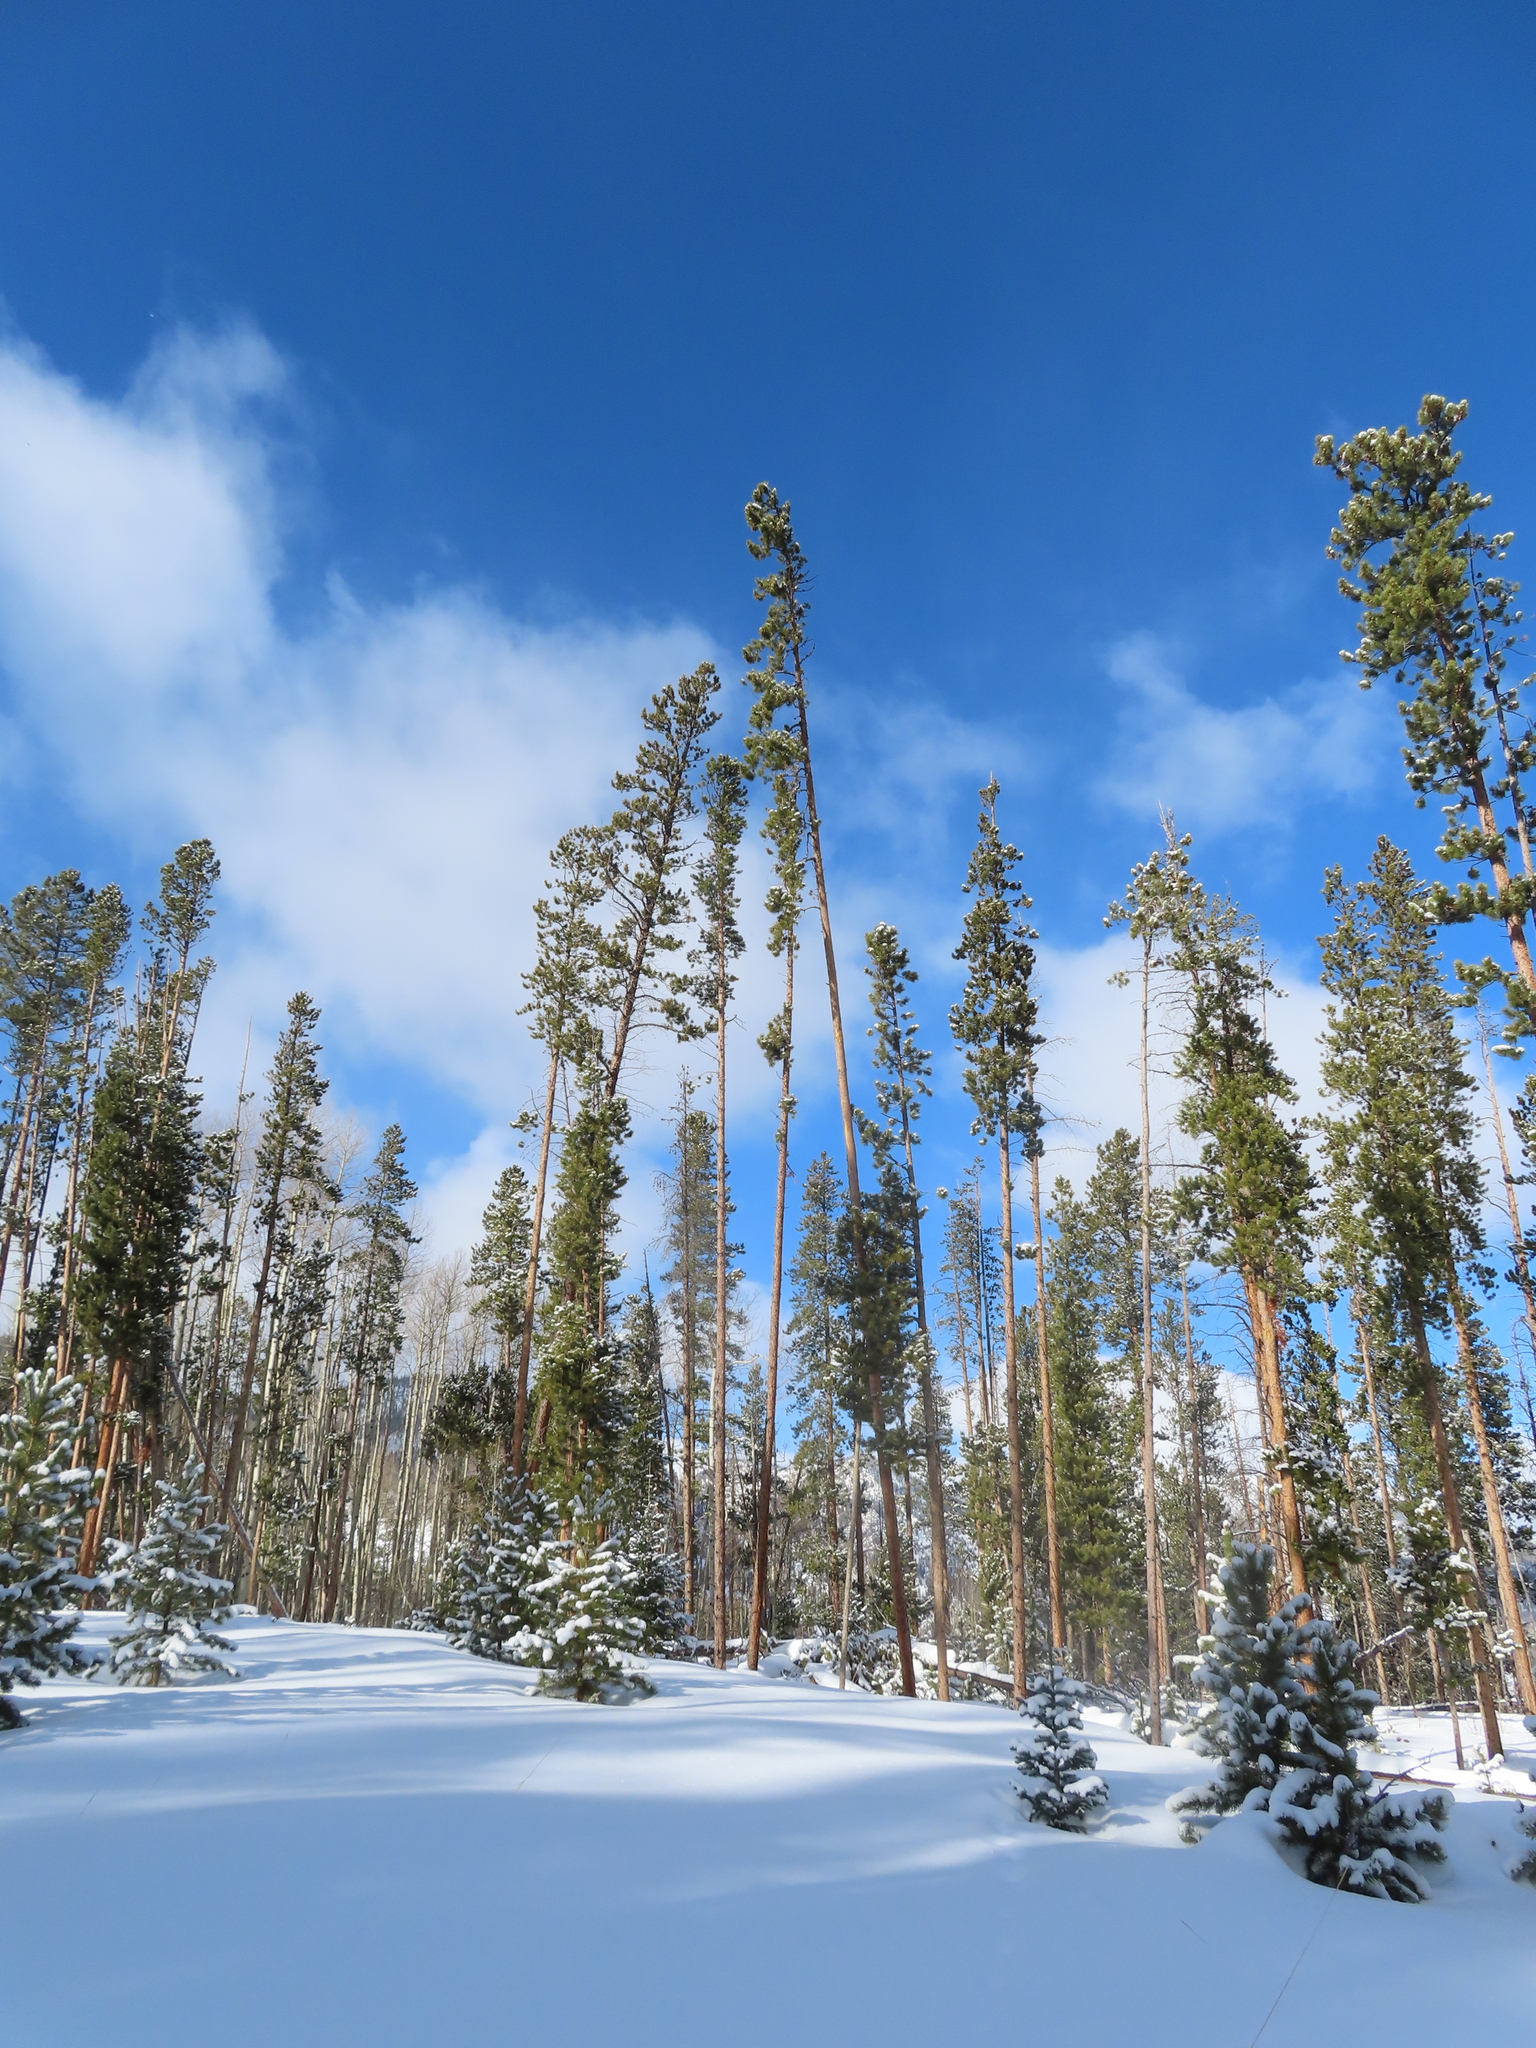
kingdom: Plantae
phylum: Tracheophyta
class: Pinopsida
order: Pinales
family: Pinaceae
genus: Pinus
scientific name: Pinus contorta
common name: Lodgepole pine
